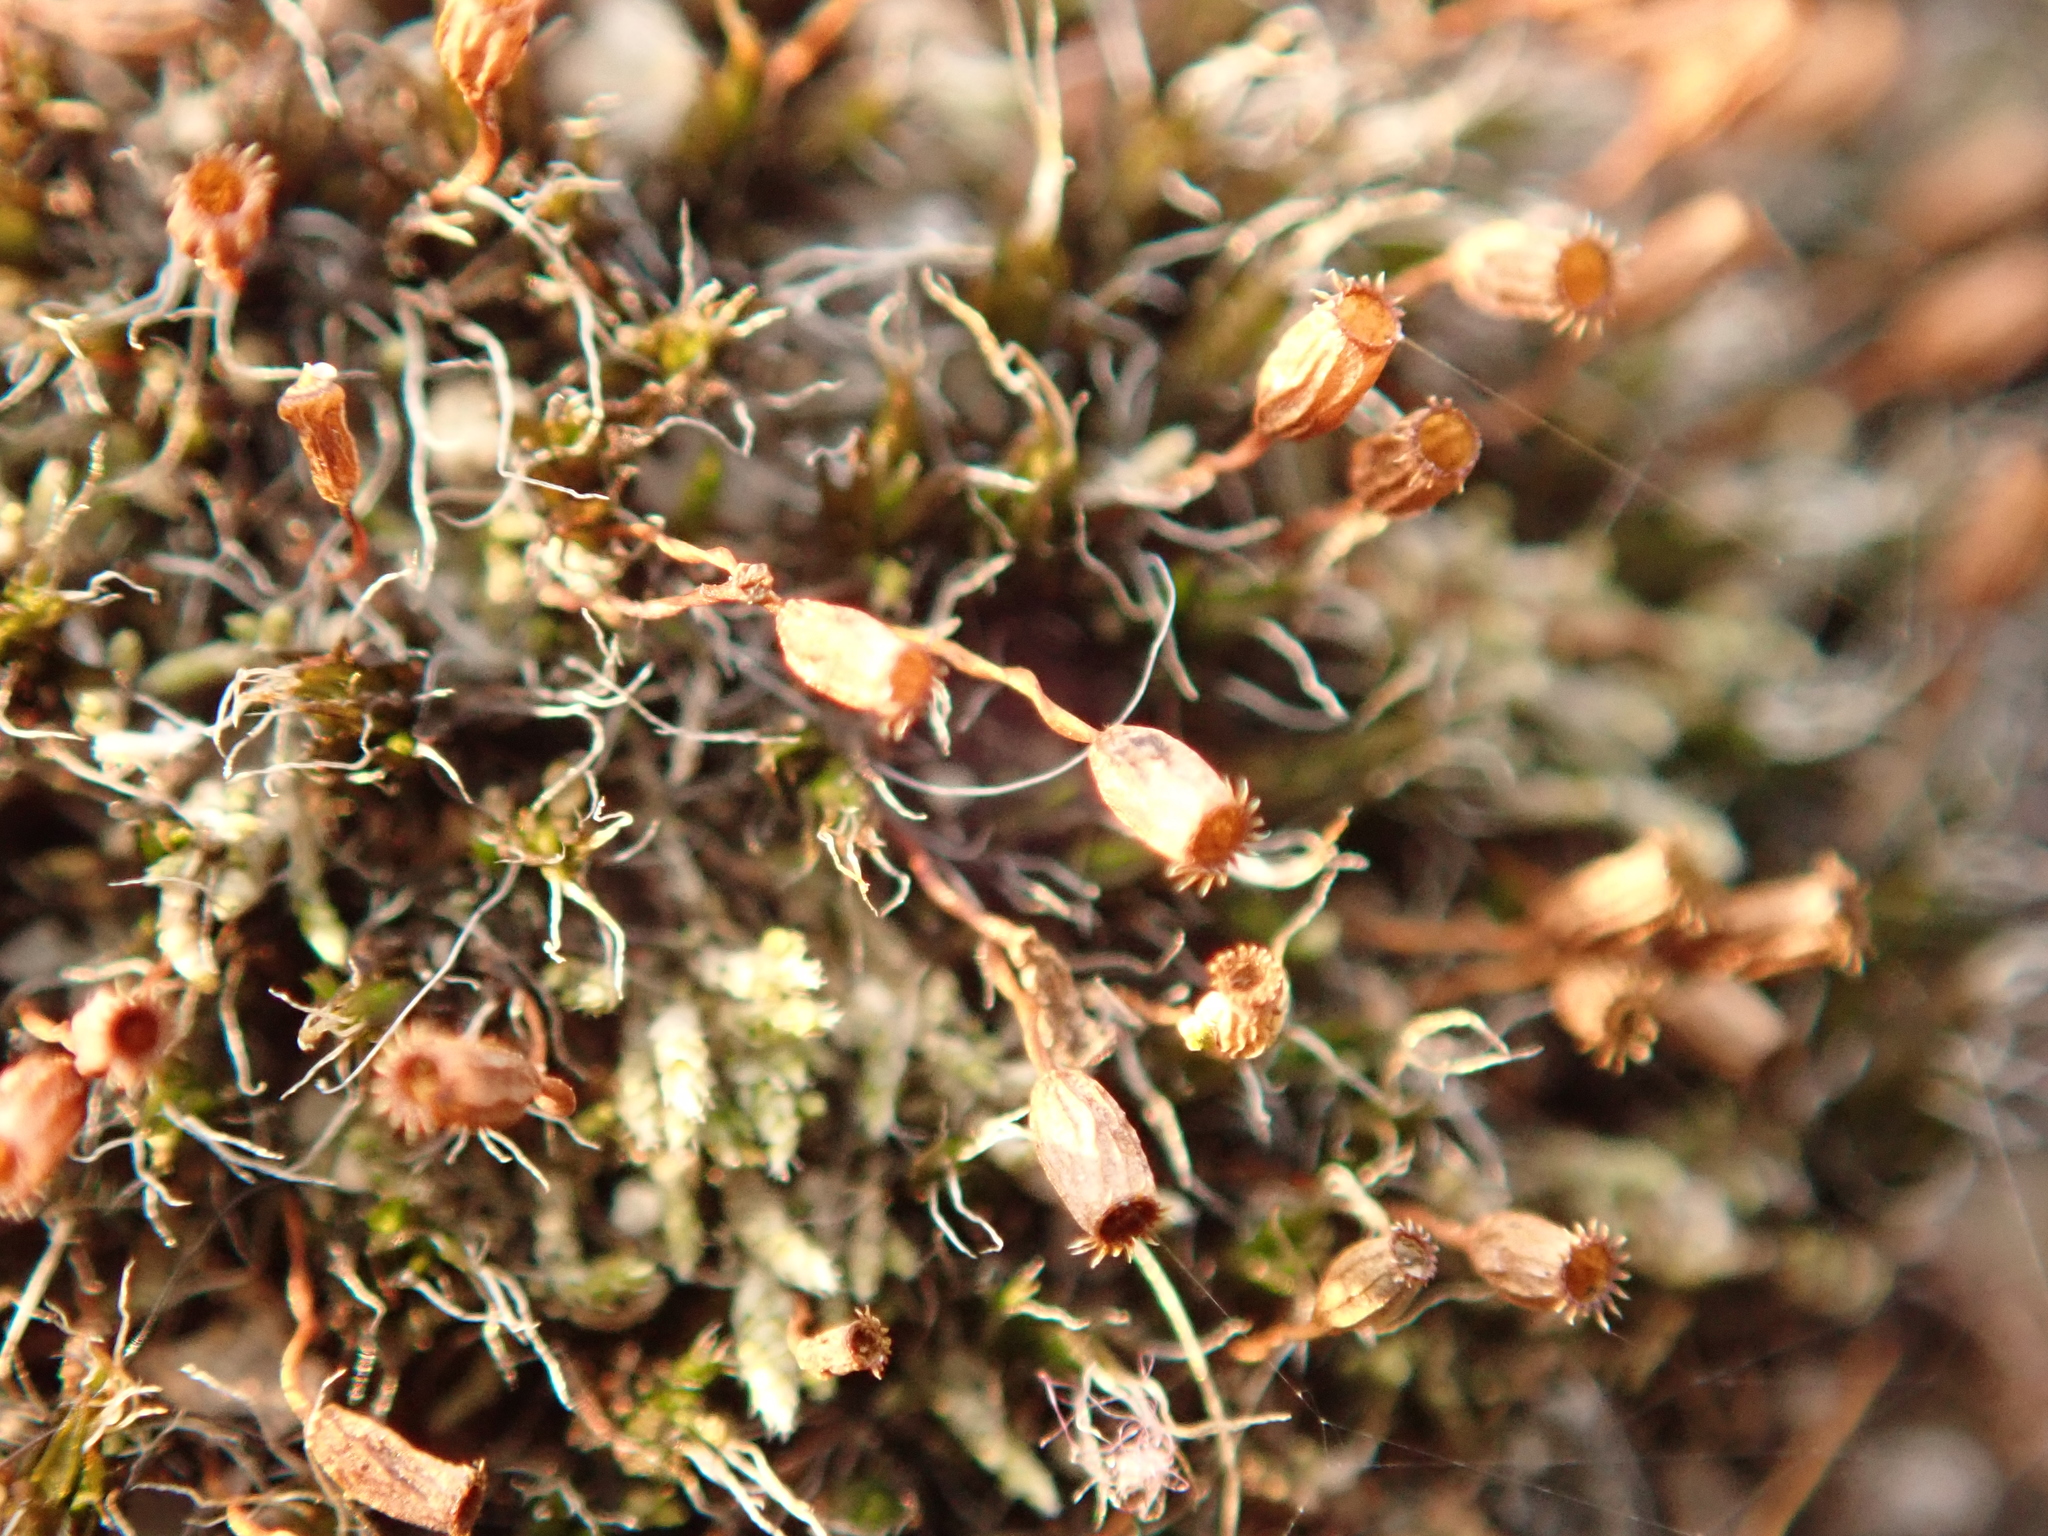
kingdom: Plantae
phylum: Bryophyta
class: Bryopsida
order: Grimmiales
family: Grimmiaceae
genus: Grimmia
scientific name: Grimmia pulvinata
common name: Grey-cushioned grimmia
